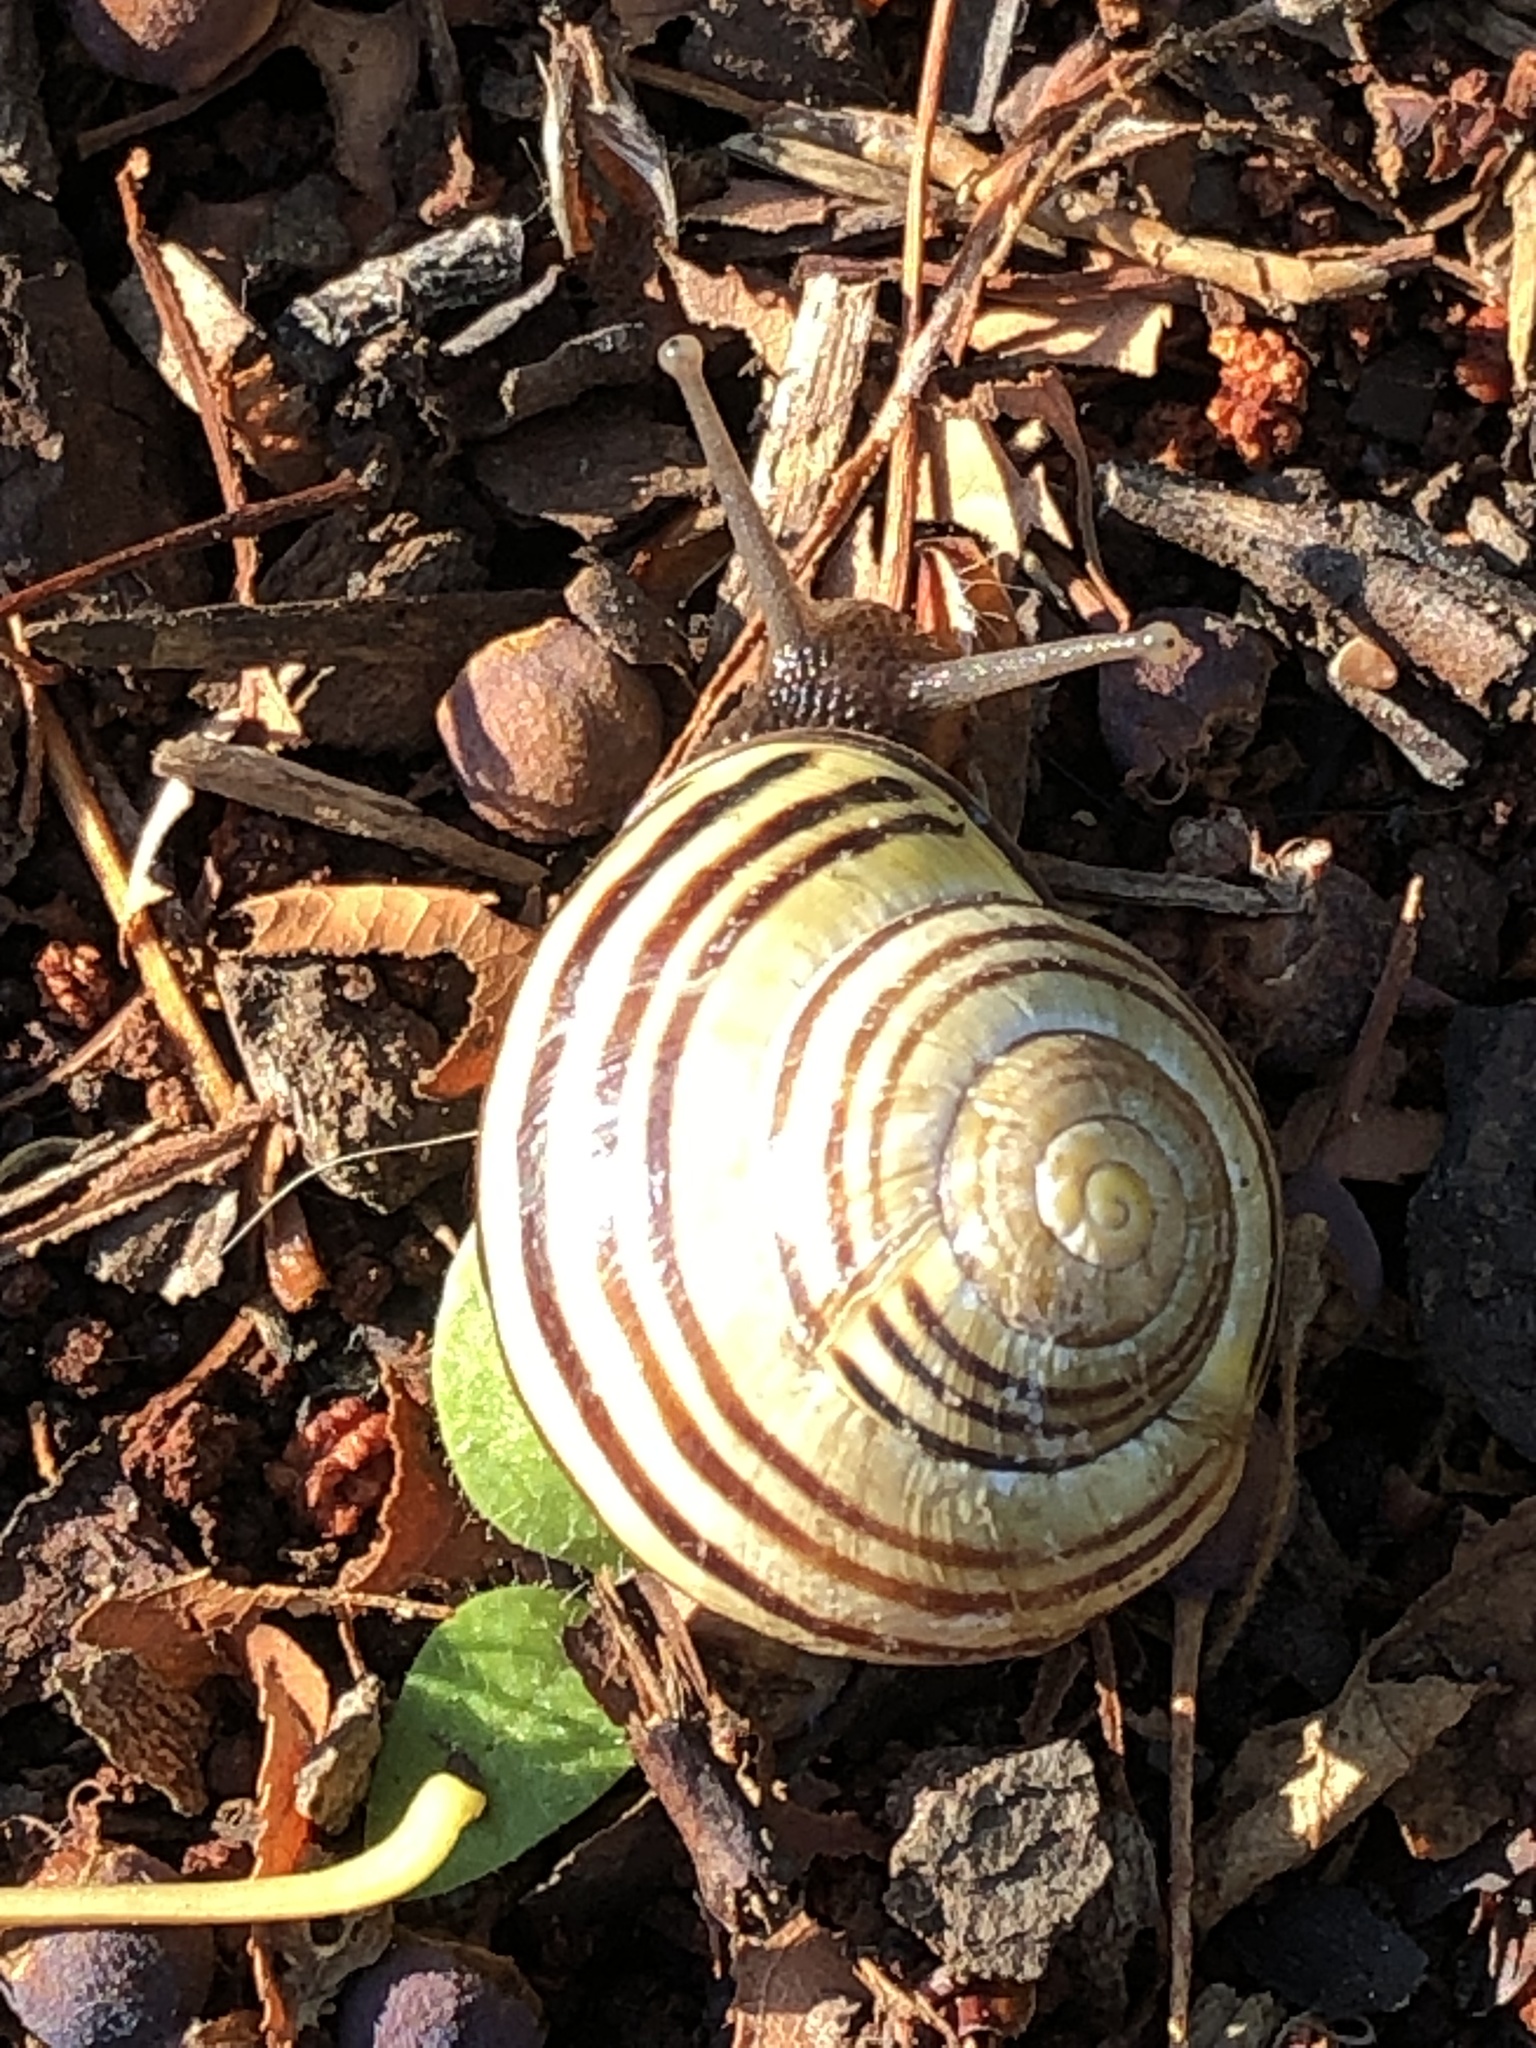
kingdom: Animalia
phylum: Mollusca
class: Gastropoda
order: Stylommatophora
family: Helicidae
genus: Cepaea
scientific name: Cepaea nemoralis
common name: Grovesnail
